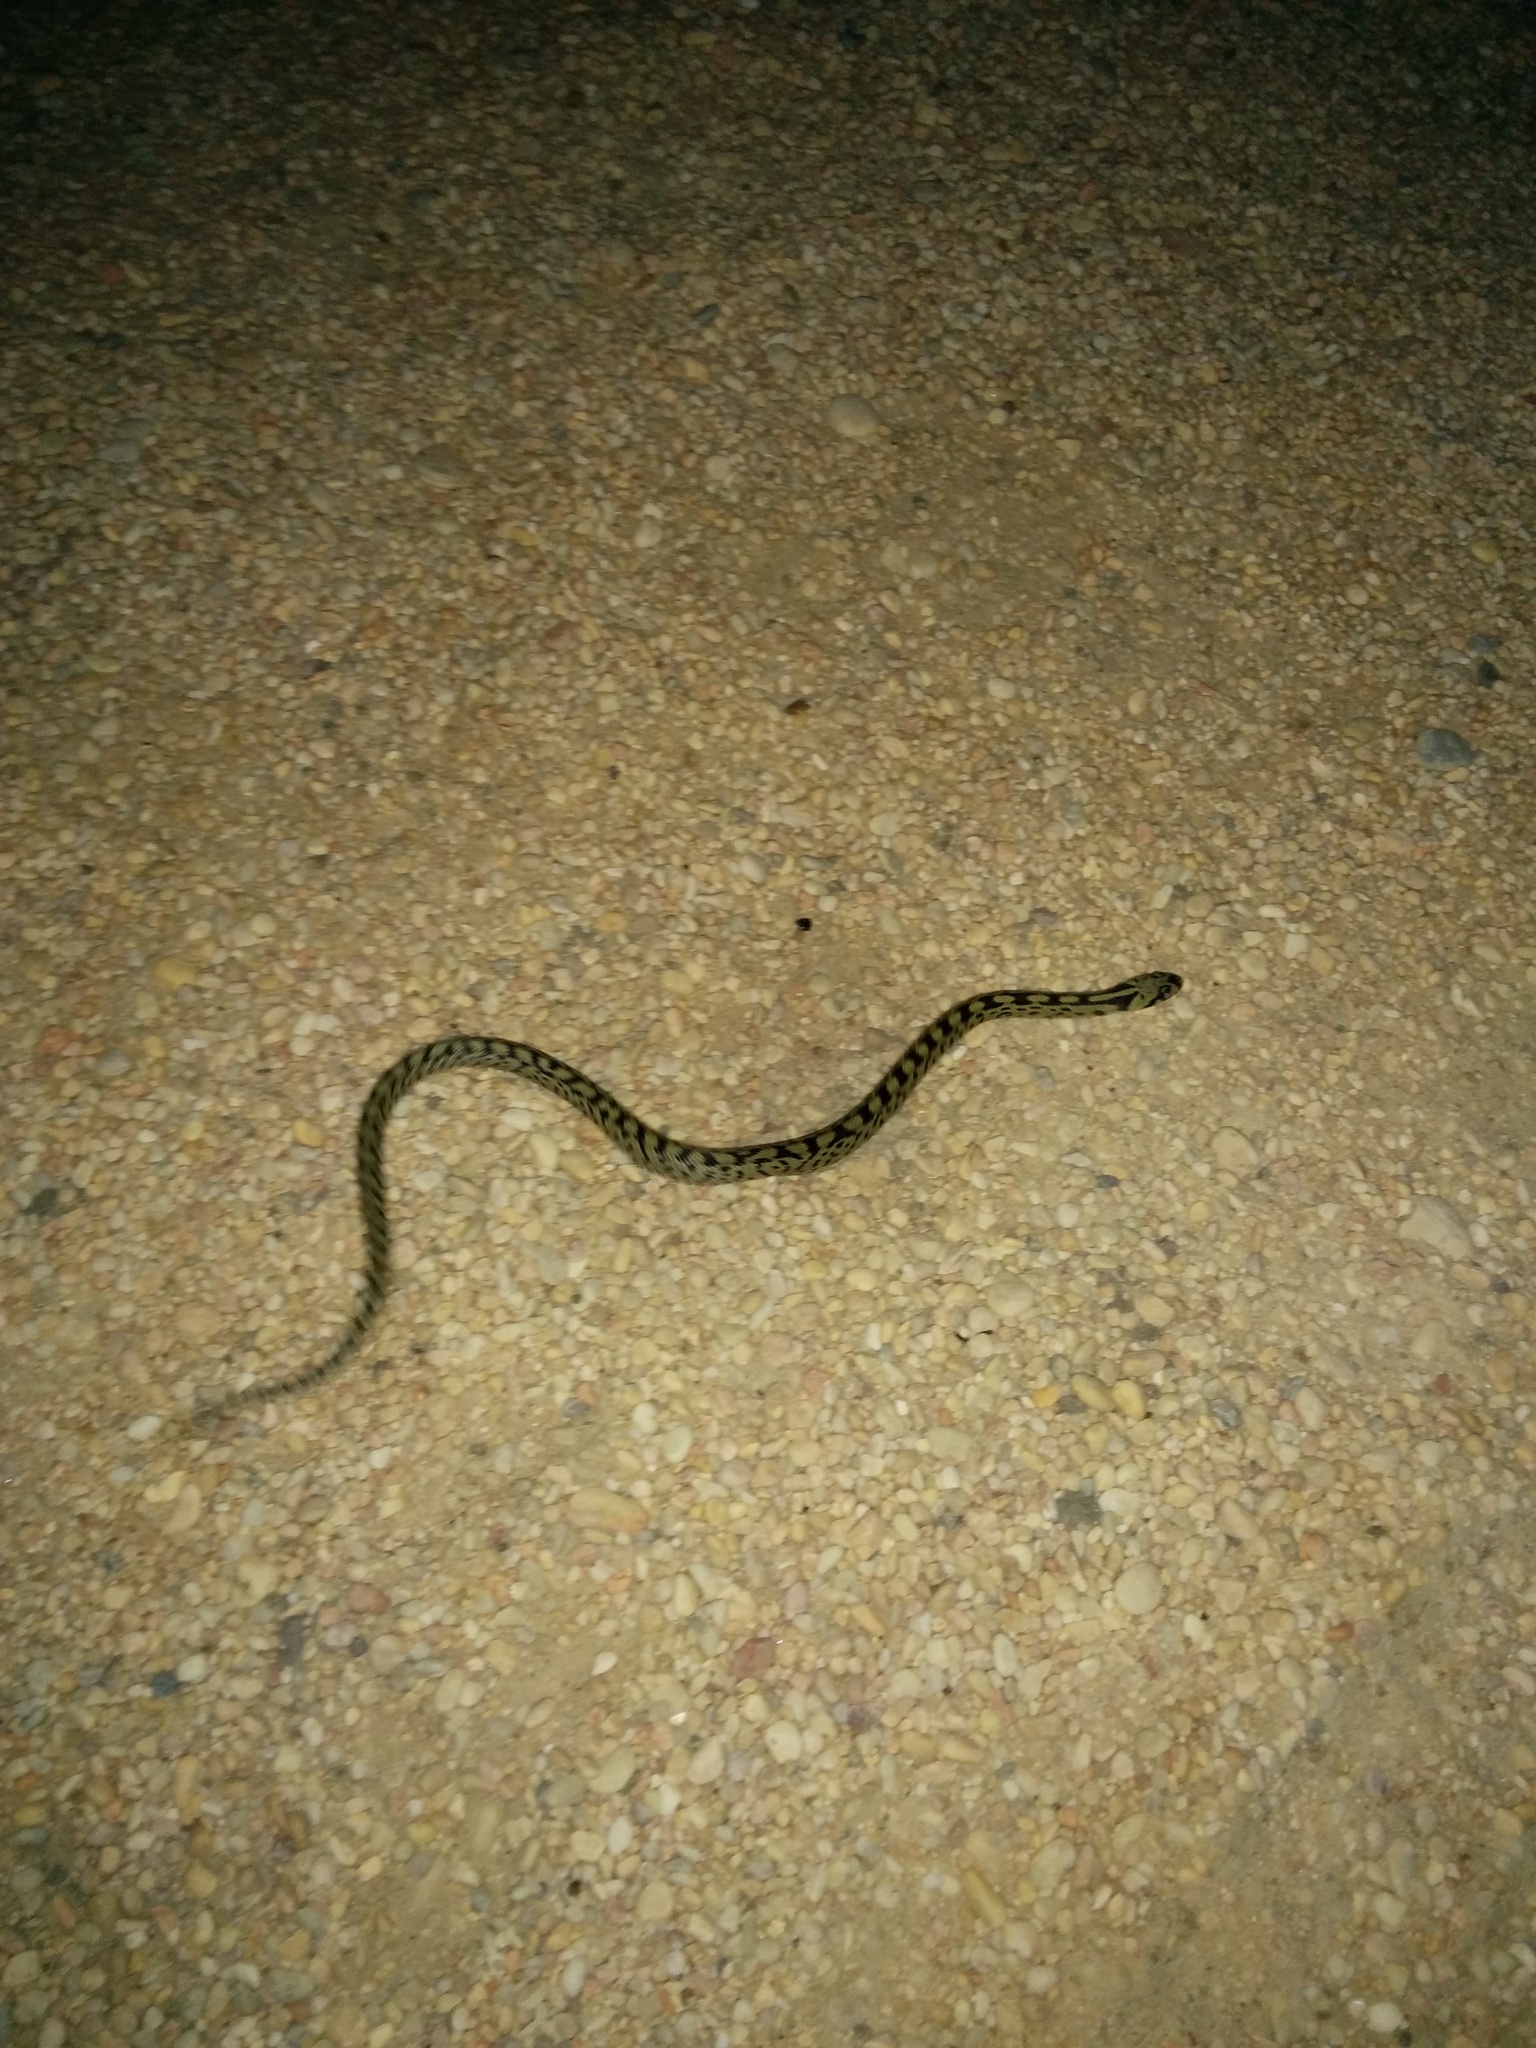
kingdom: Animalia
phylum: Chordata
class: Squamata
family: Colubridae
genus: Zamenis
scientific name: Zamenis scalaris
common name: Ladder snakes
